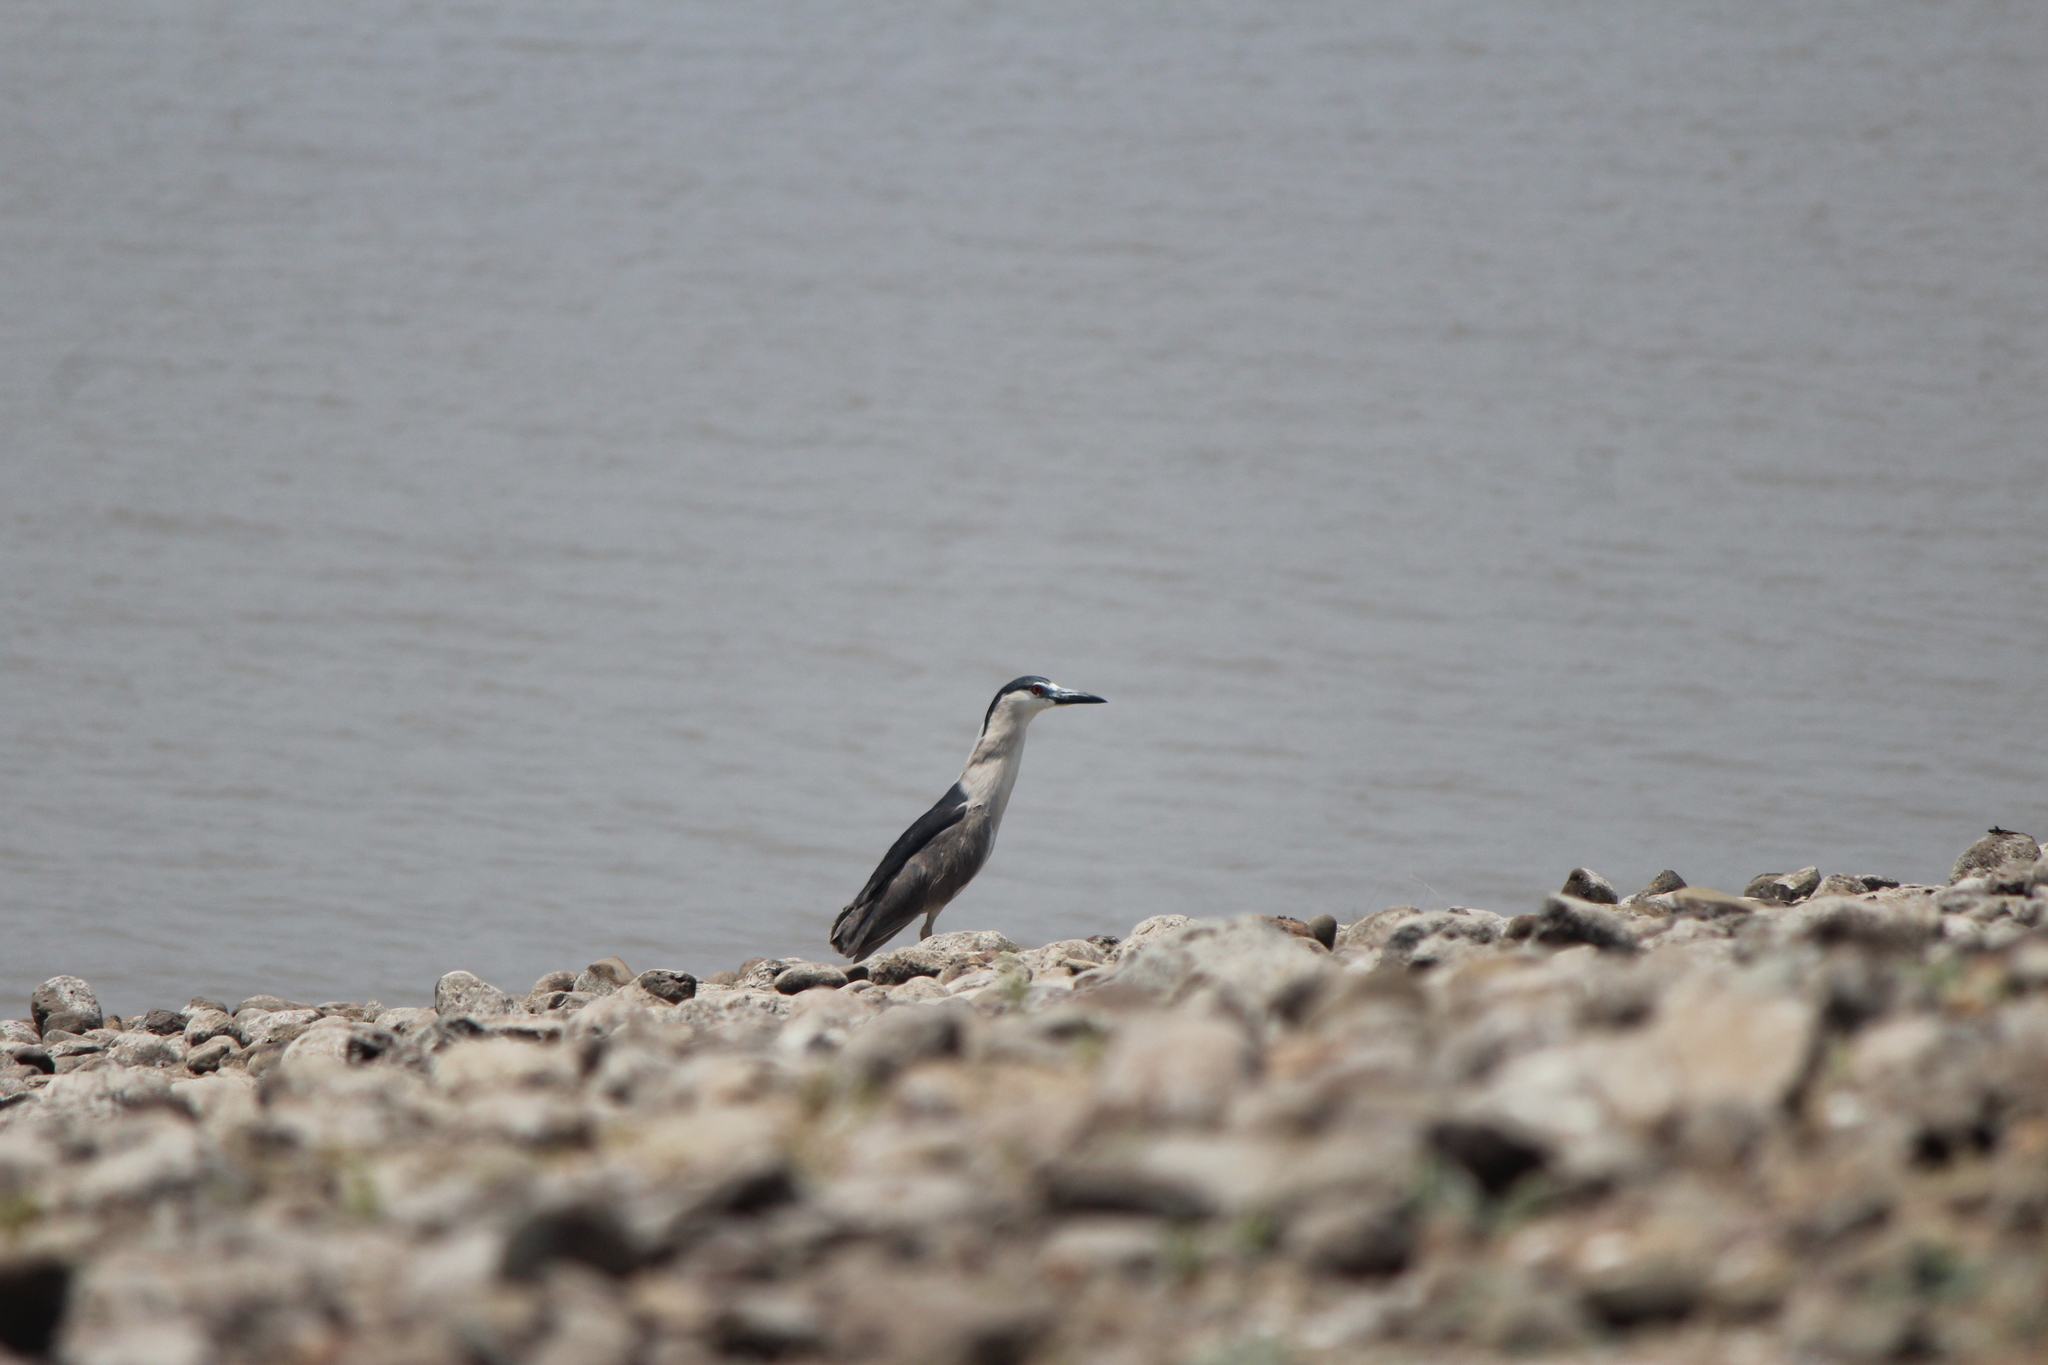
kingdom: Animalia
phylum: Chordata
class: Aves
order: Pelecaniformes
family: Ardeidae
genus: Nycticorax
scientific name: Nycticorax nycticorax
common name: Black-crowned night heron
